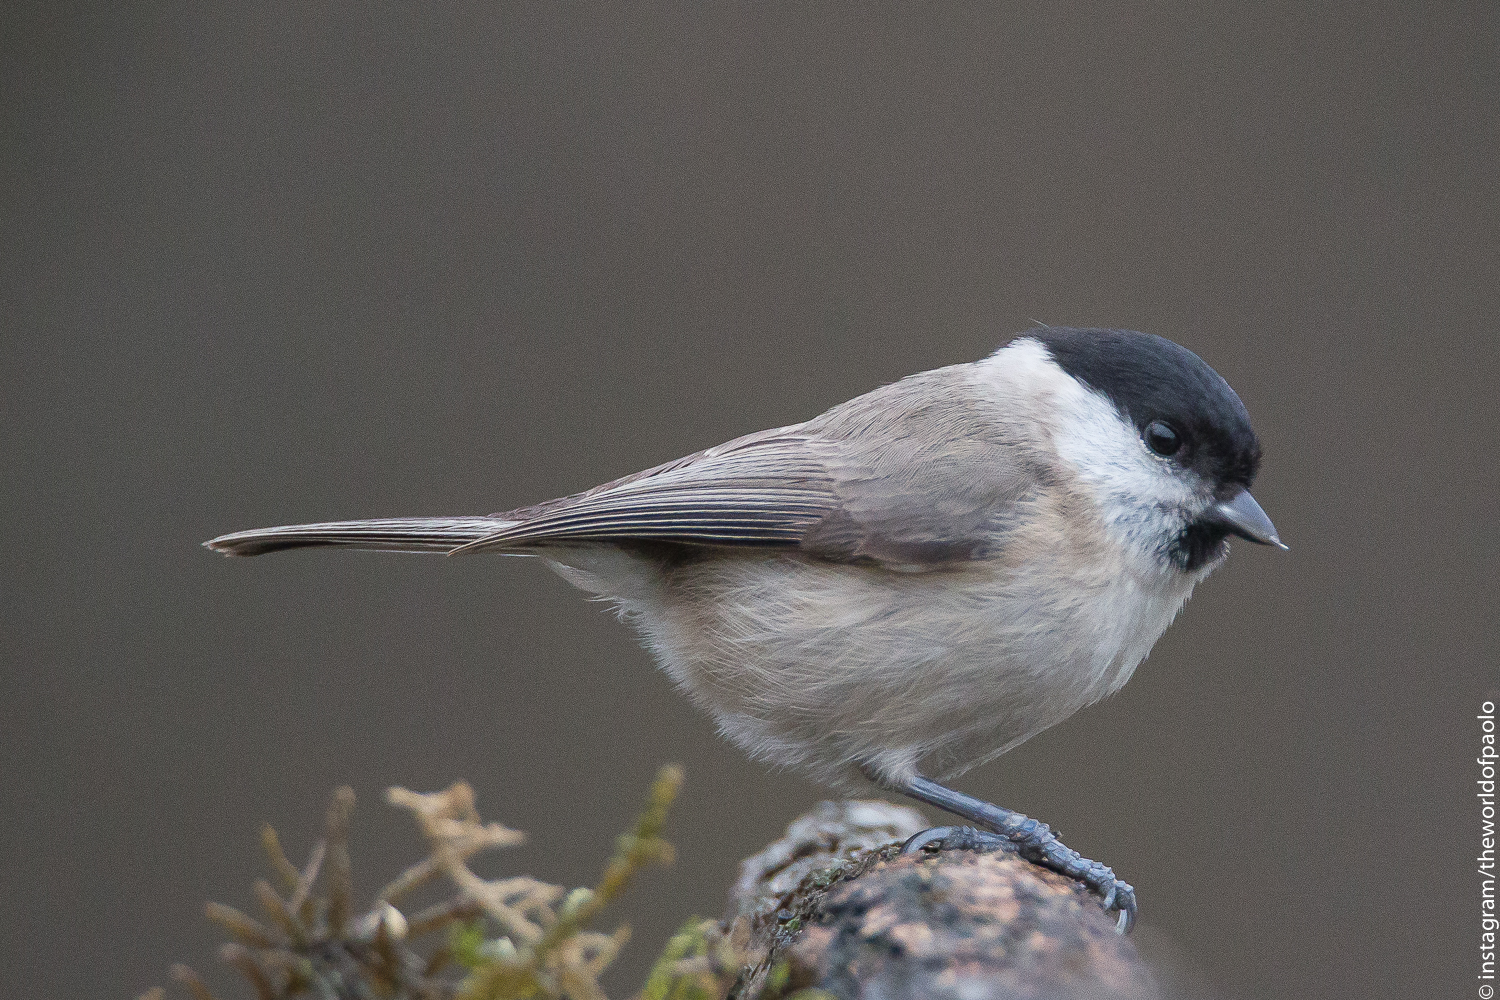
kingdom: Animalia
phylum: Chordata
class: Aves
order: Passeriformes
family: Paridae
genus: Poecile
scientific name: Poecile palustris
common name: Marsh tit
